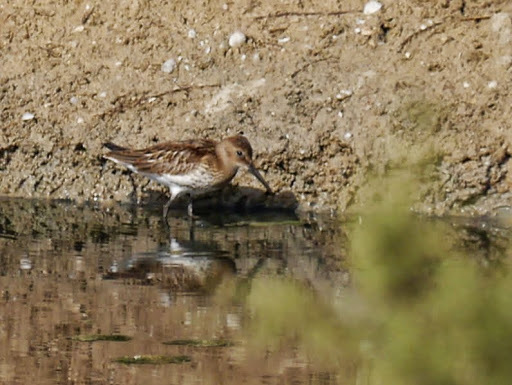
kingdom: Animalia
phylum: Chordata
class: Aves
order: Charadriiformes
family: Scolopacidae
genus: Calidris
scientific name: Calidris alpina
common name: Dunlin
